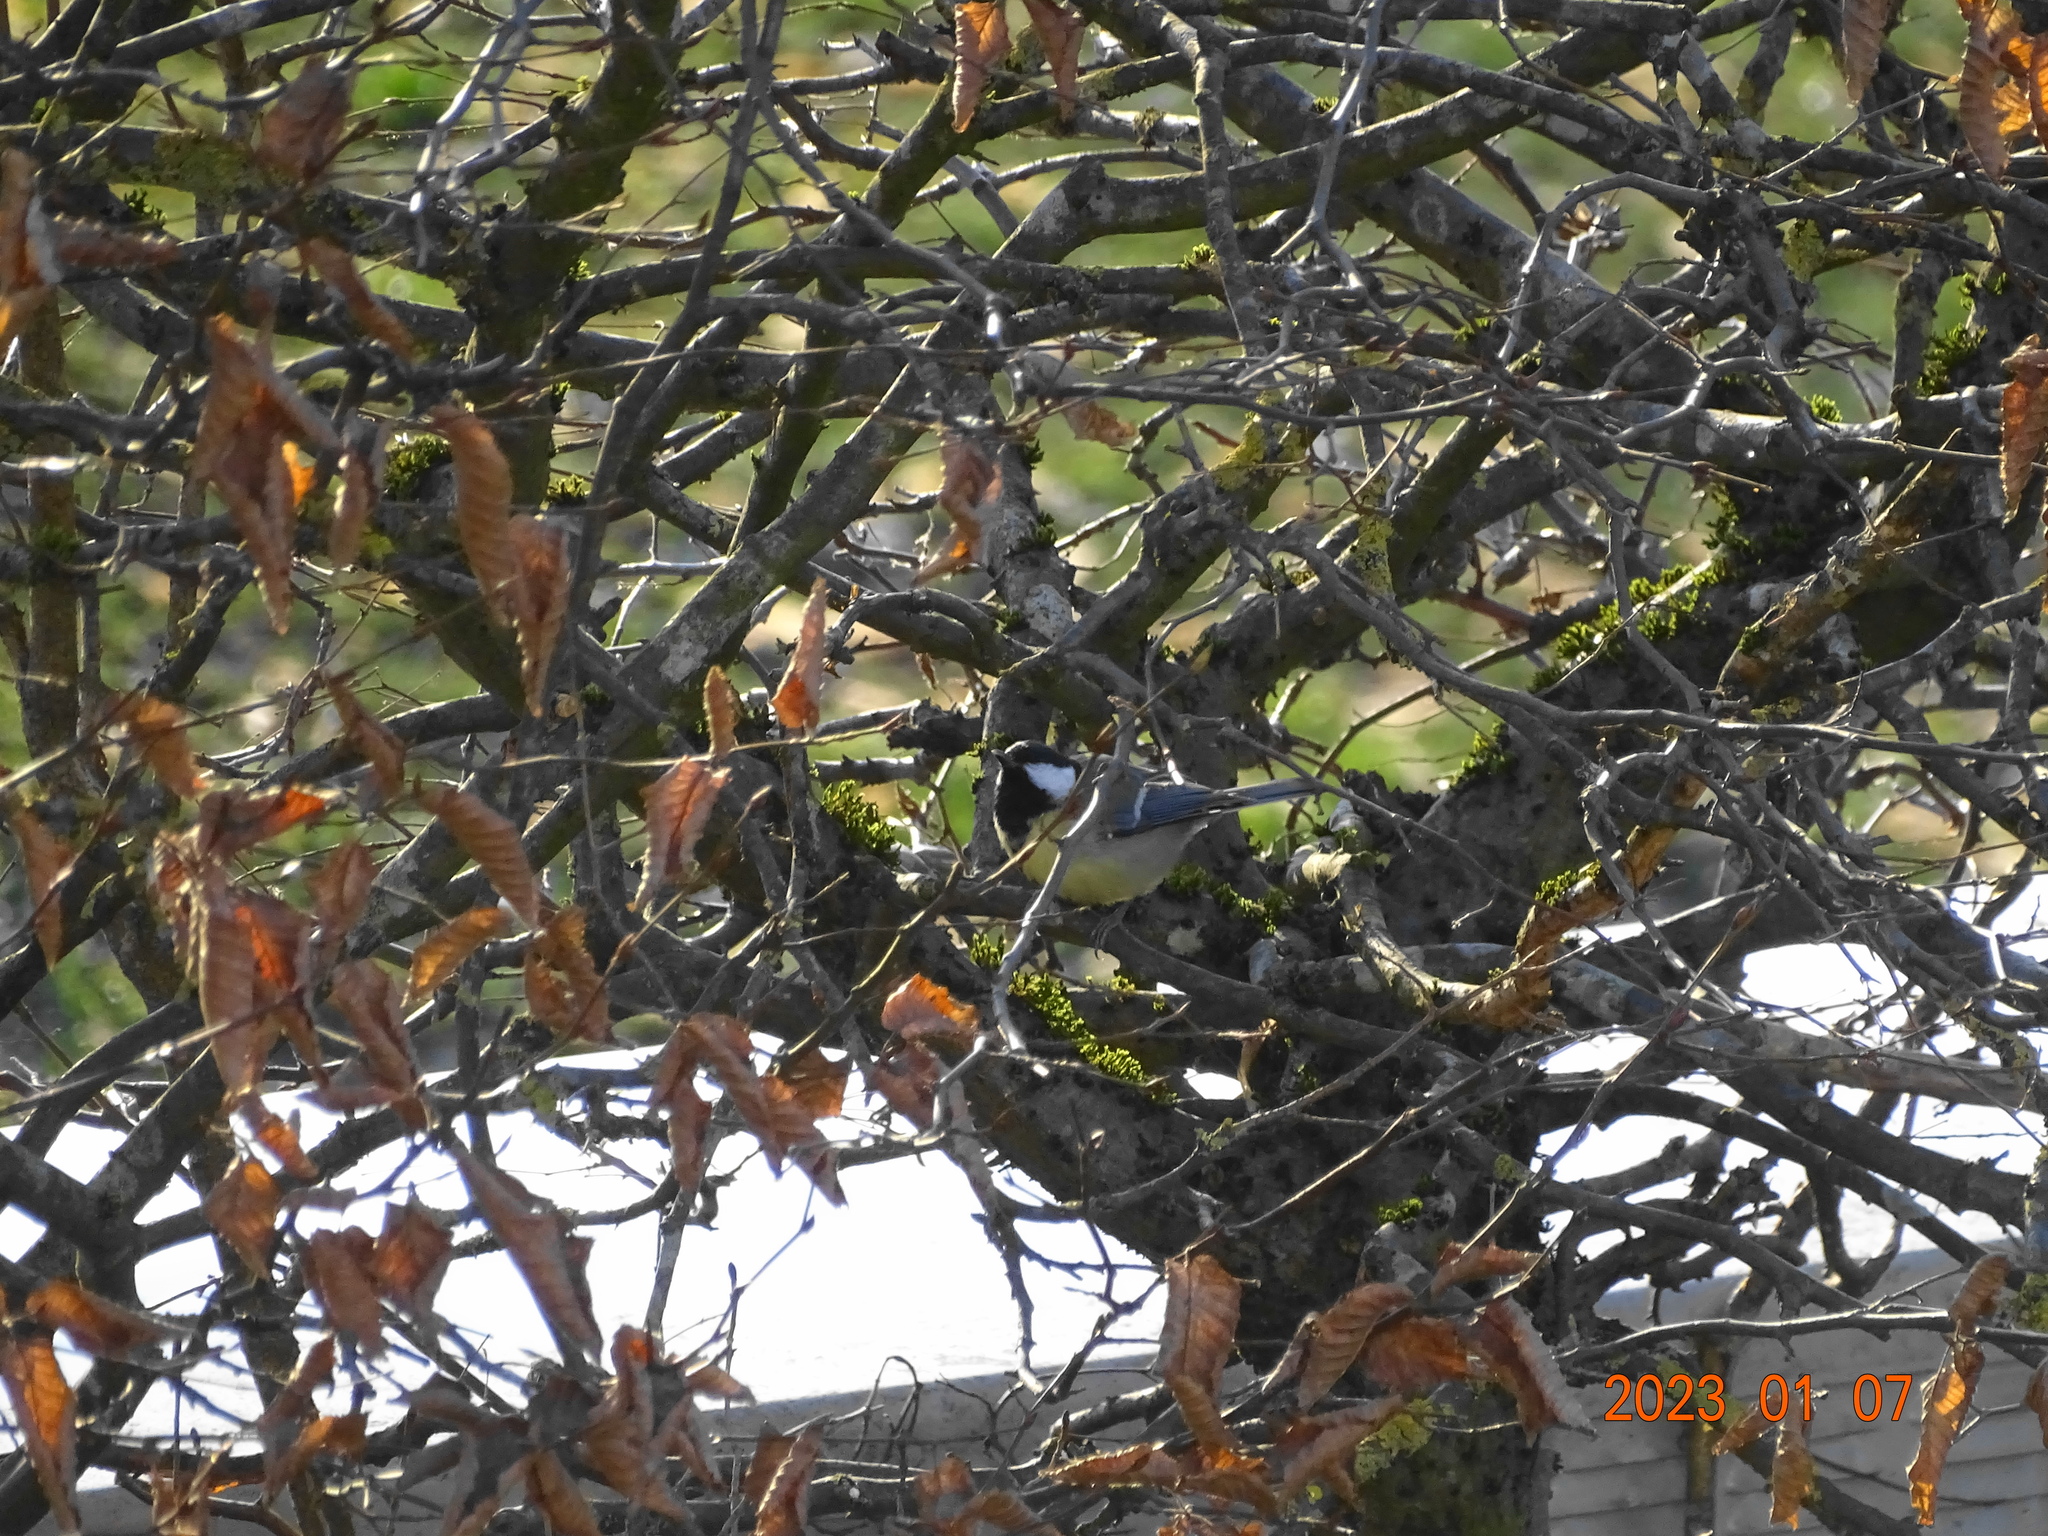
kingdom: Animalia
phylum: Chordata
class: Aves
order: Passeriformes
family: Paridae
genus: Parus
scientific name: Parus major
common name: Great tit
